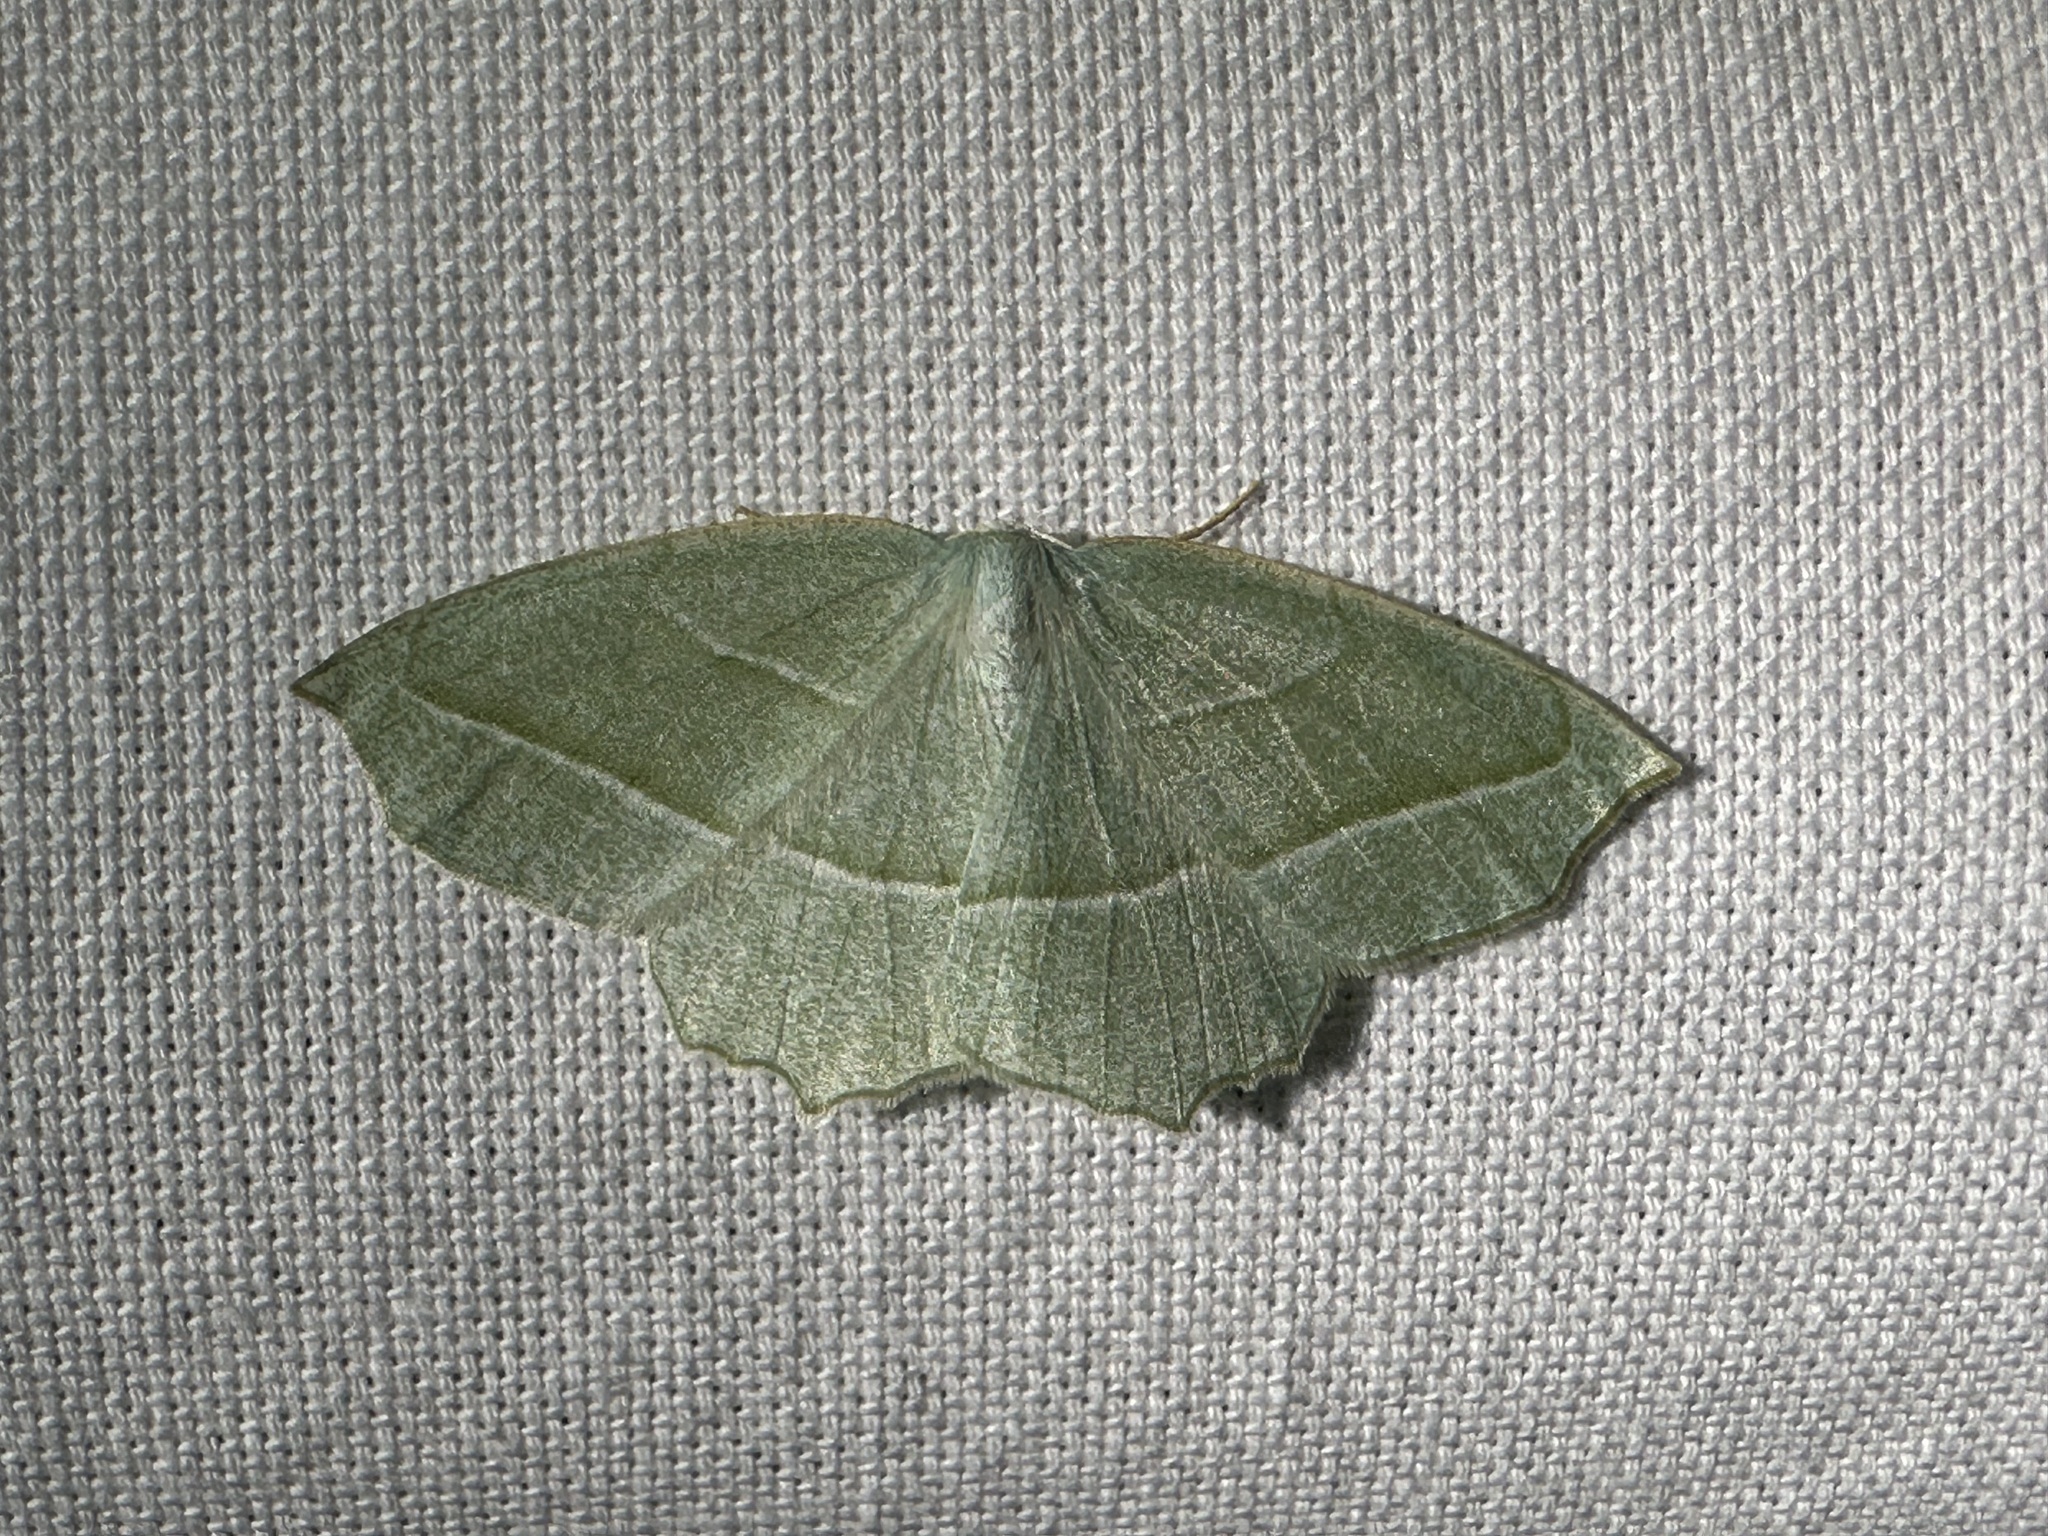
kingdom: Animalia
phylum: Arthropoda
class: Insecta
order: Lepidoptera
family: Geometridae
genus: Campaea
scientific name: Campaea perlata
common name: Fringed looper
